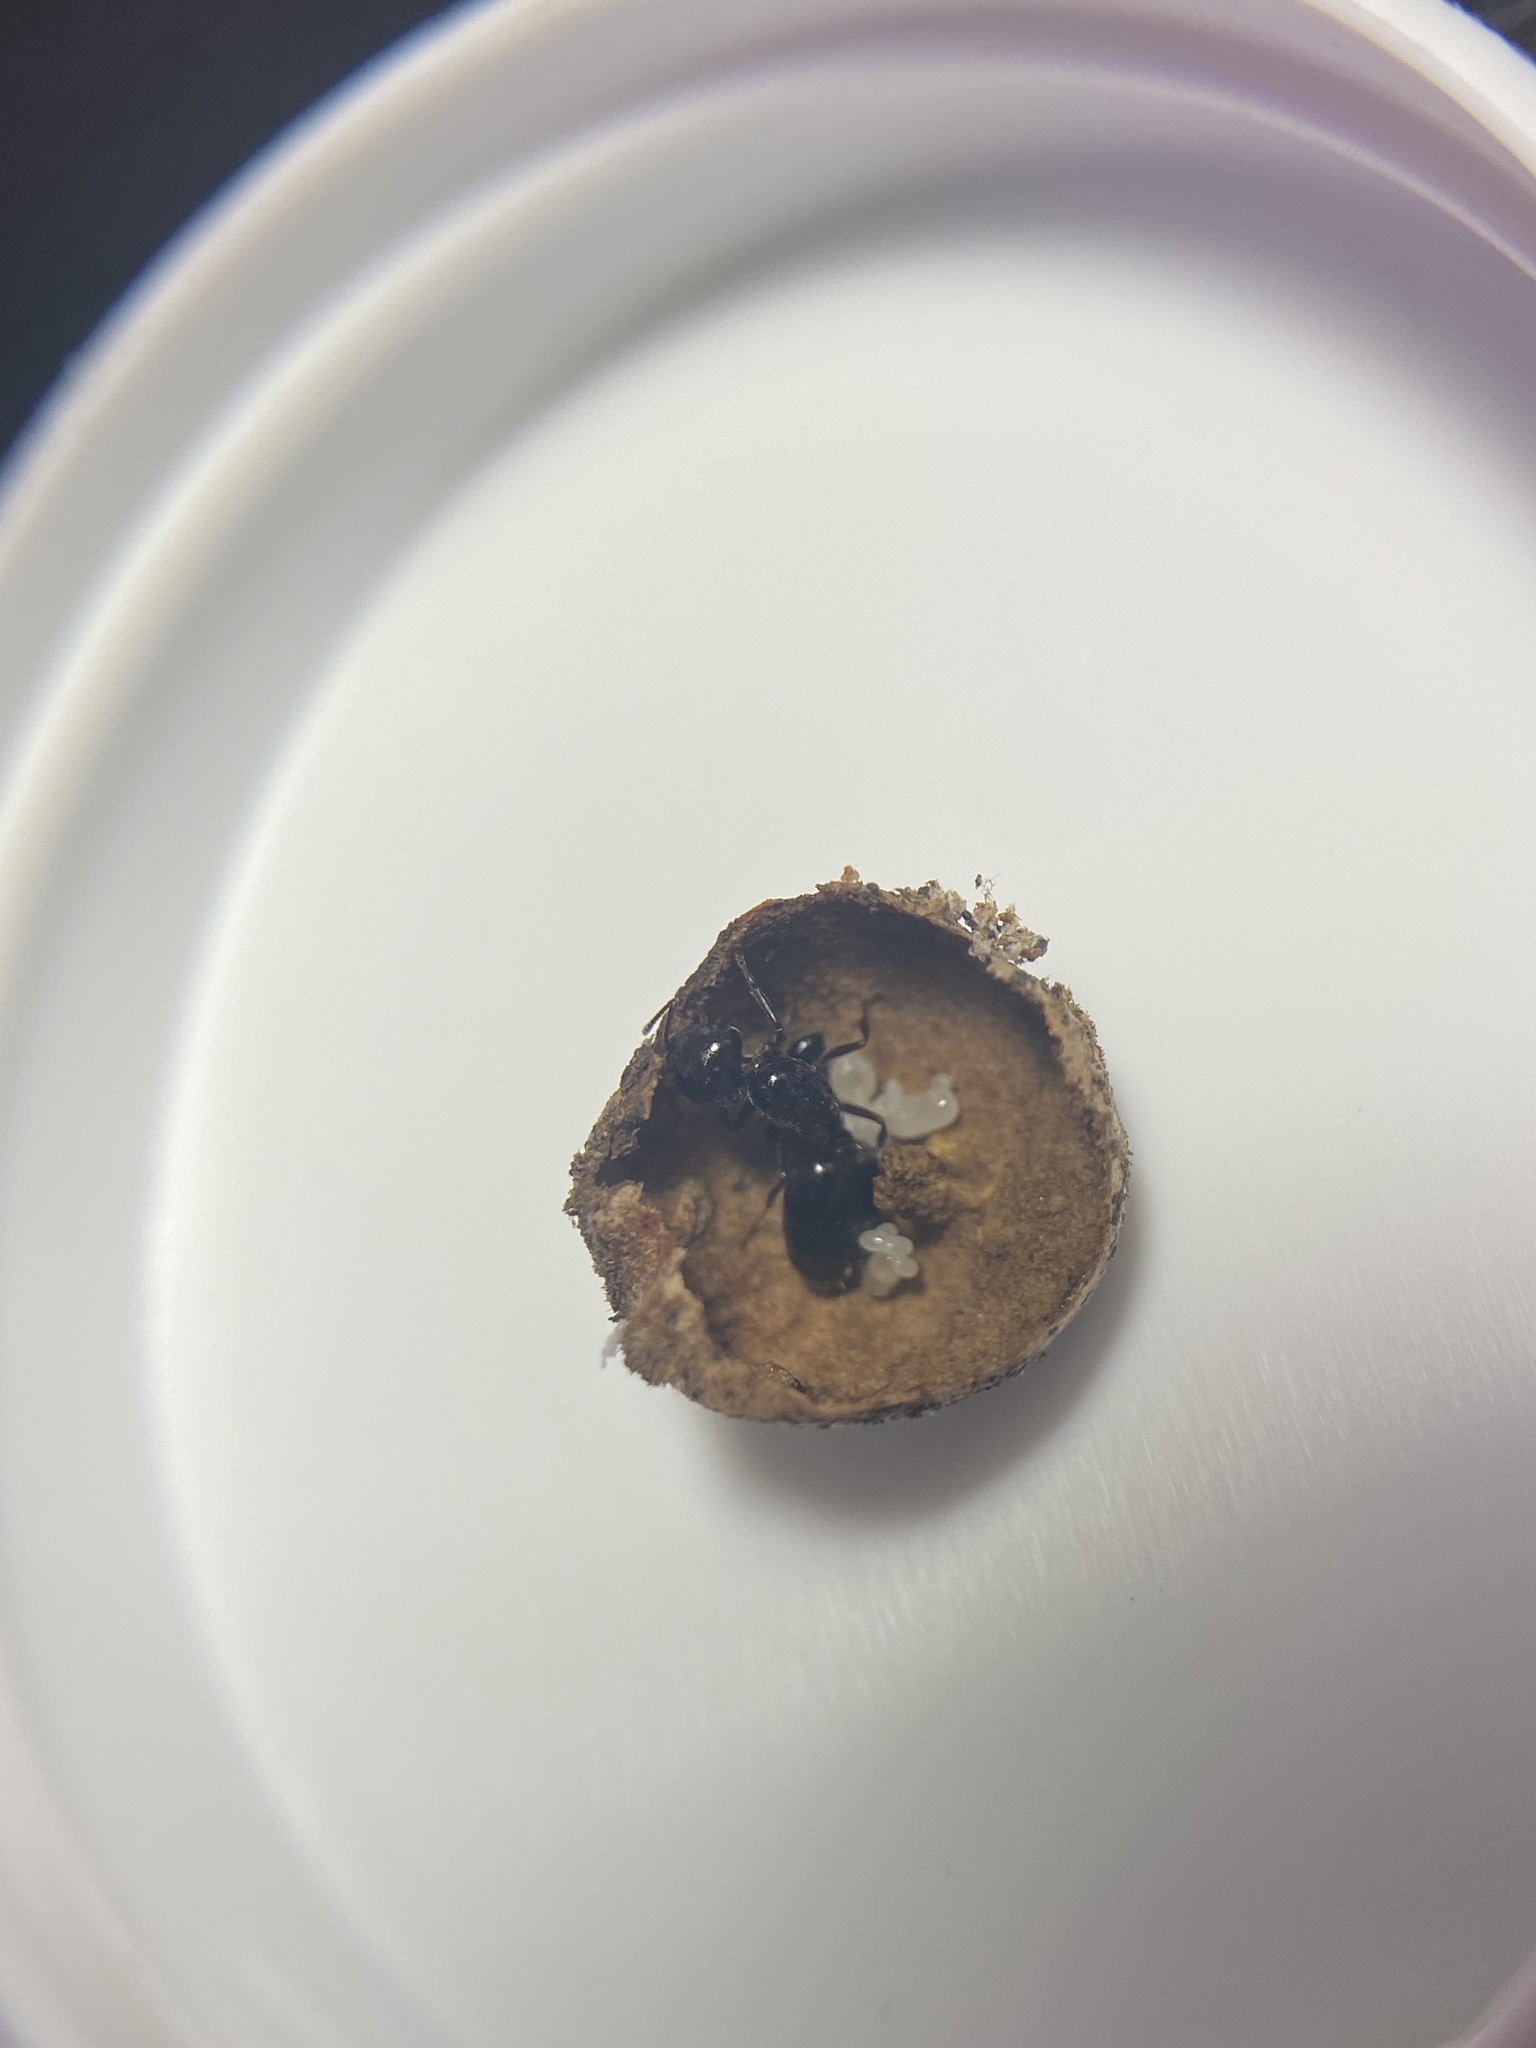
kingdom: Animalia
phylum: Arthropoda
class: Insecta
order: Hymenoptera
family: Formicidae
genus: Crematogaster
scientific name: Crematogaster
